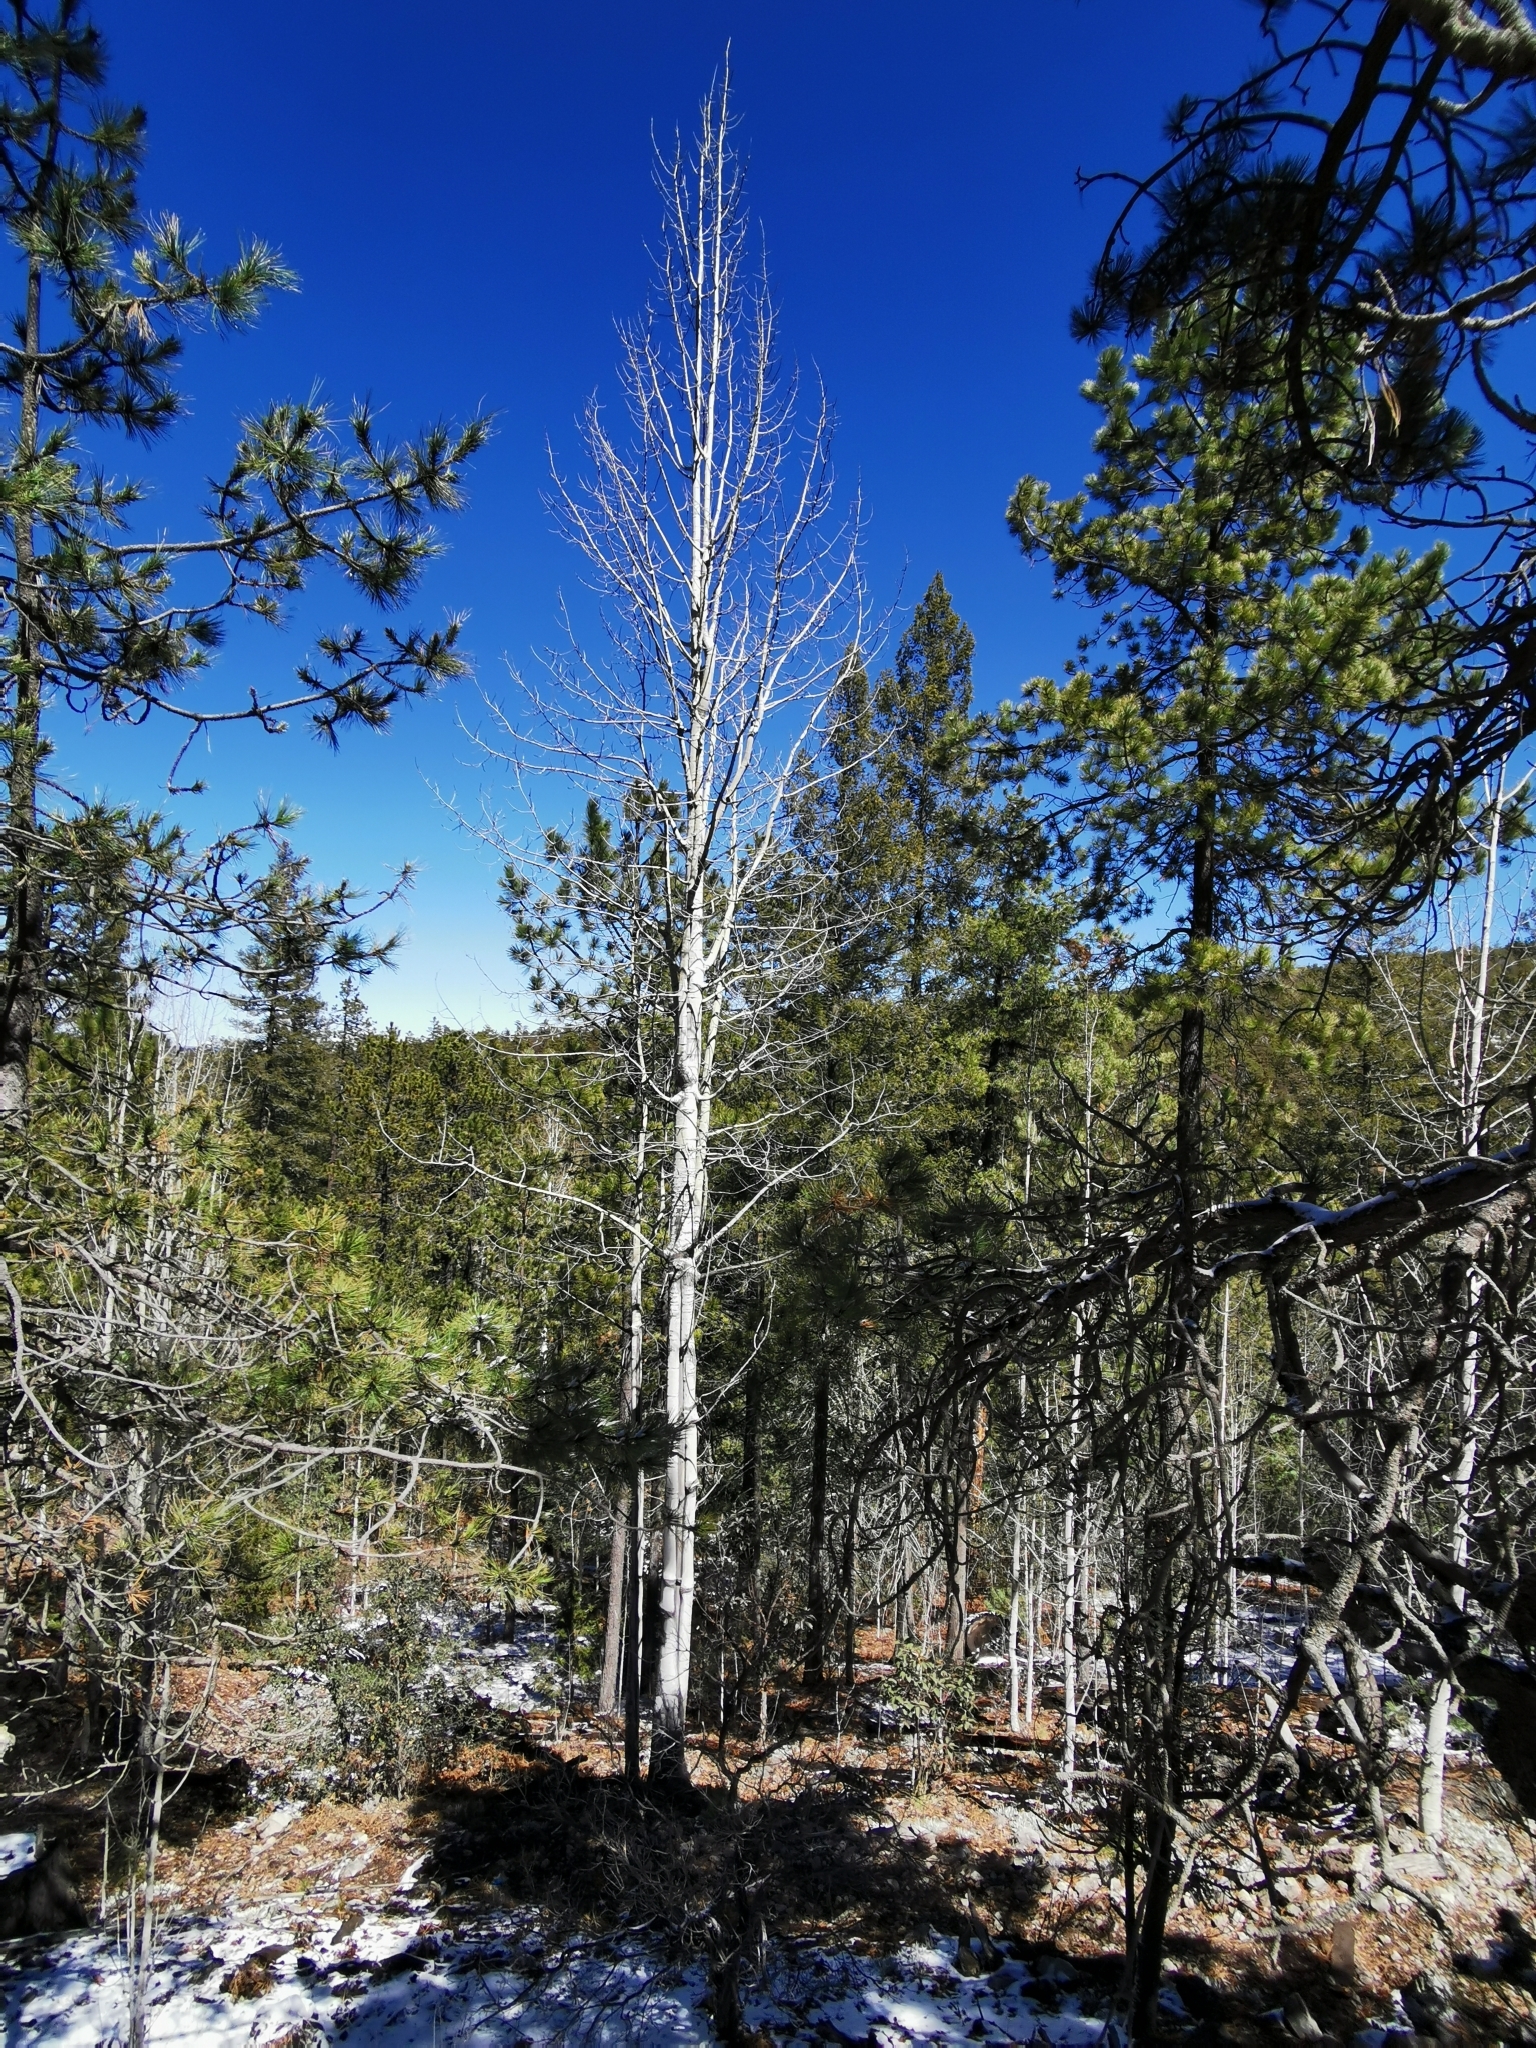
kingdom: Plantae
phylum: Tracheophyta
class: Magnoliopsida
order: Malpighiales
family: Salicaceae
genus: Populus
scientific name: Populus tremuloides
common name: Quaking aspen
